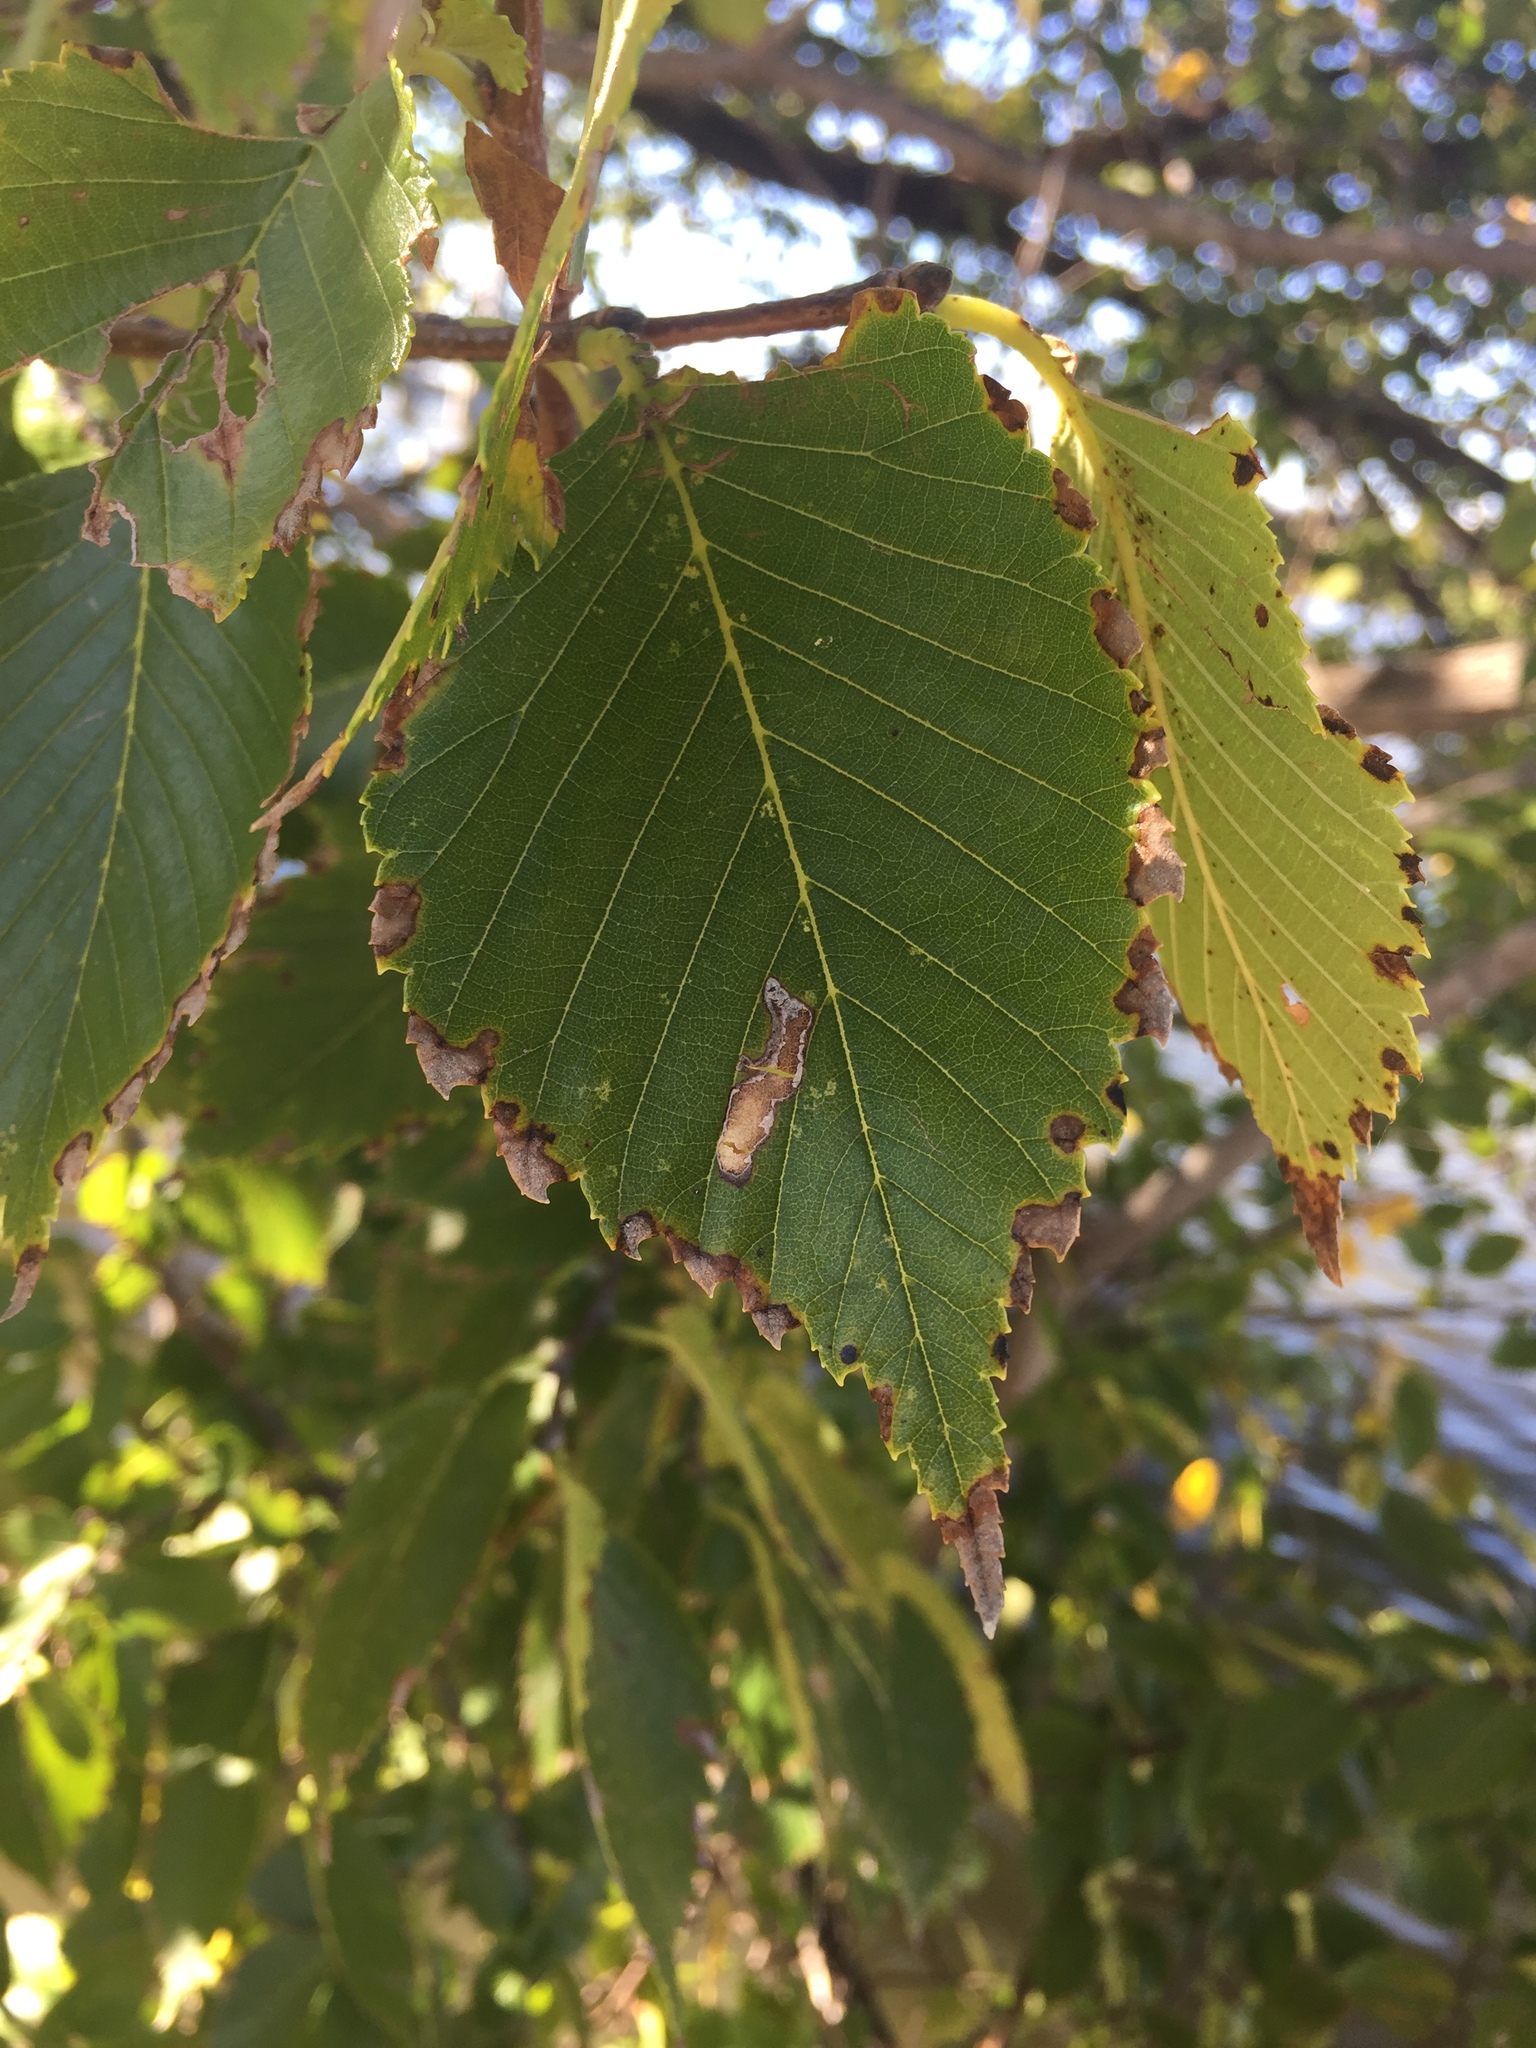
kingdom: Plantae
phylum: Tracheophyta
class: Magnoliopsida
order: Rosales
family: Ulmaceae
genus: Ulmus
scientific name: Ulmus americana
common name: American elm
